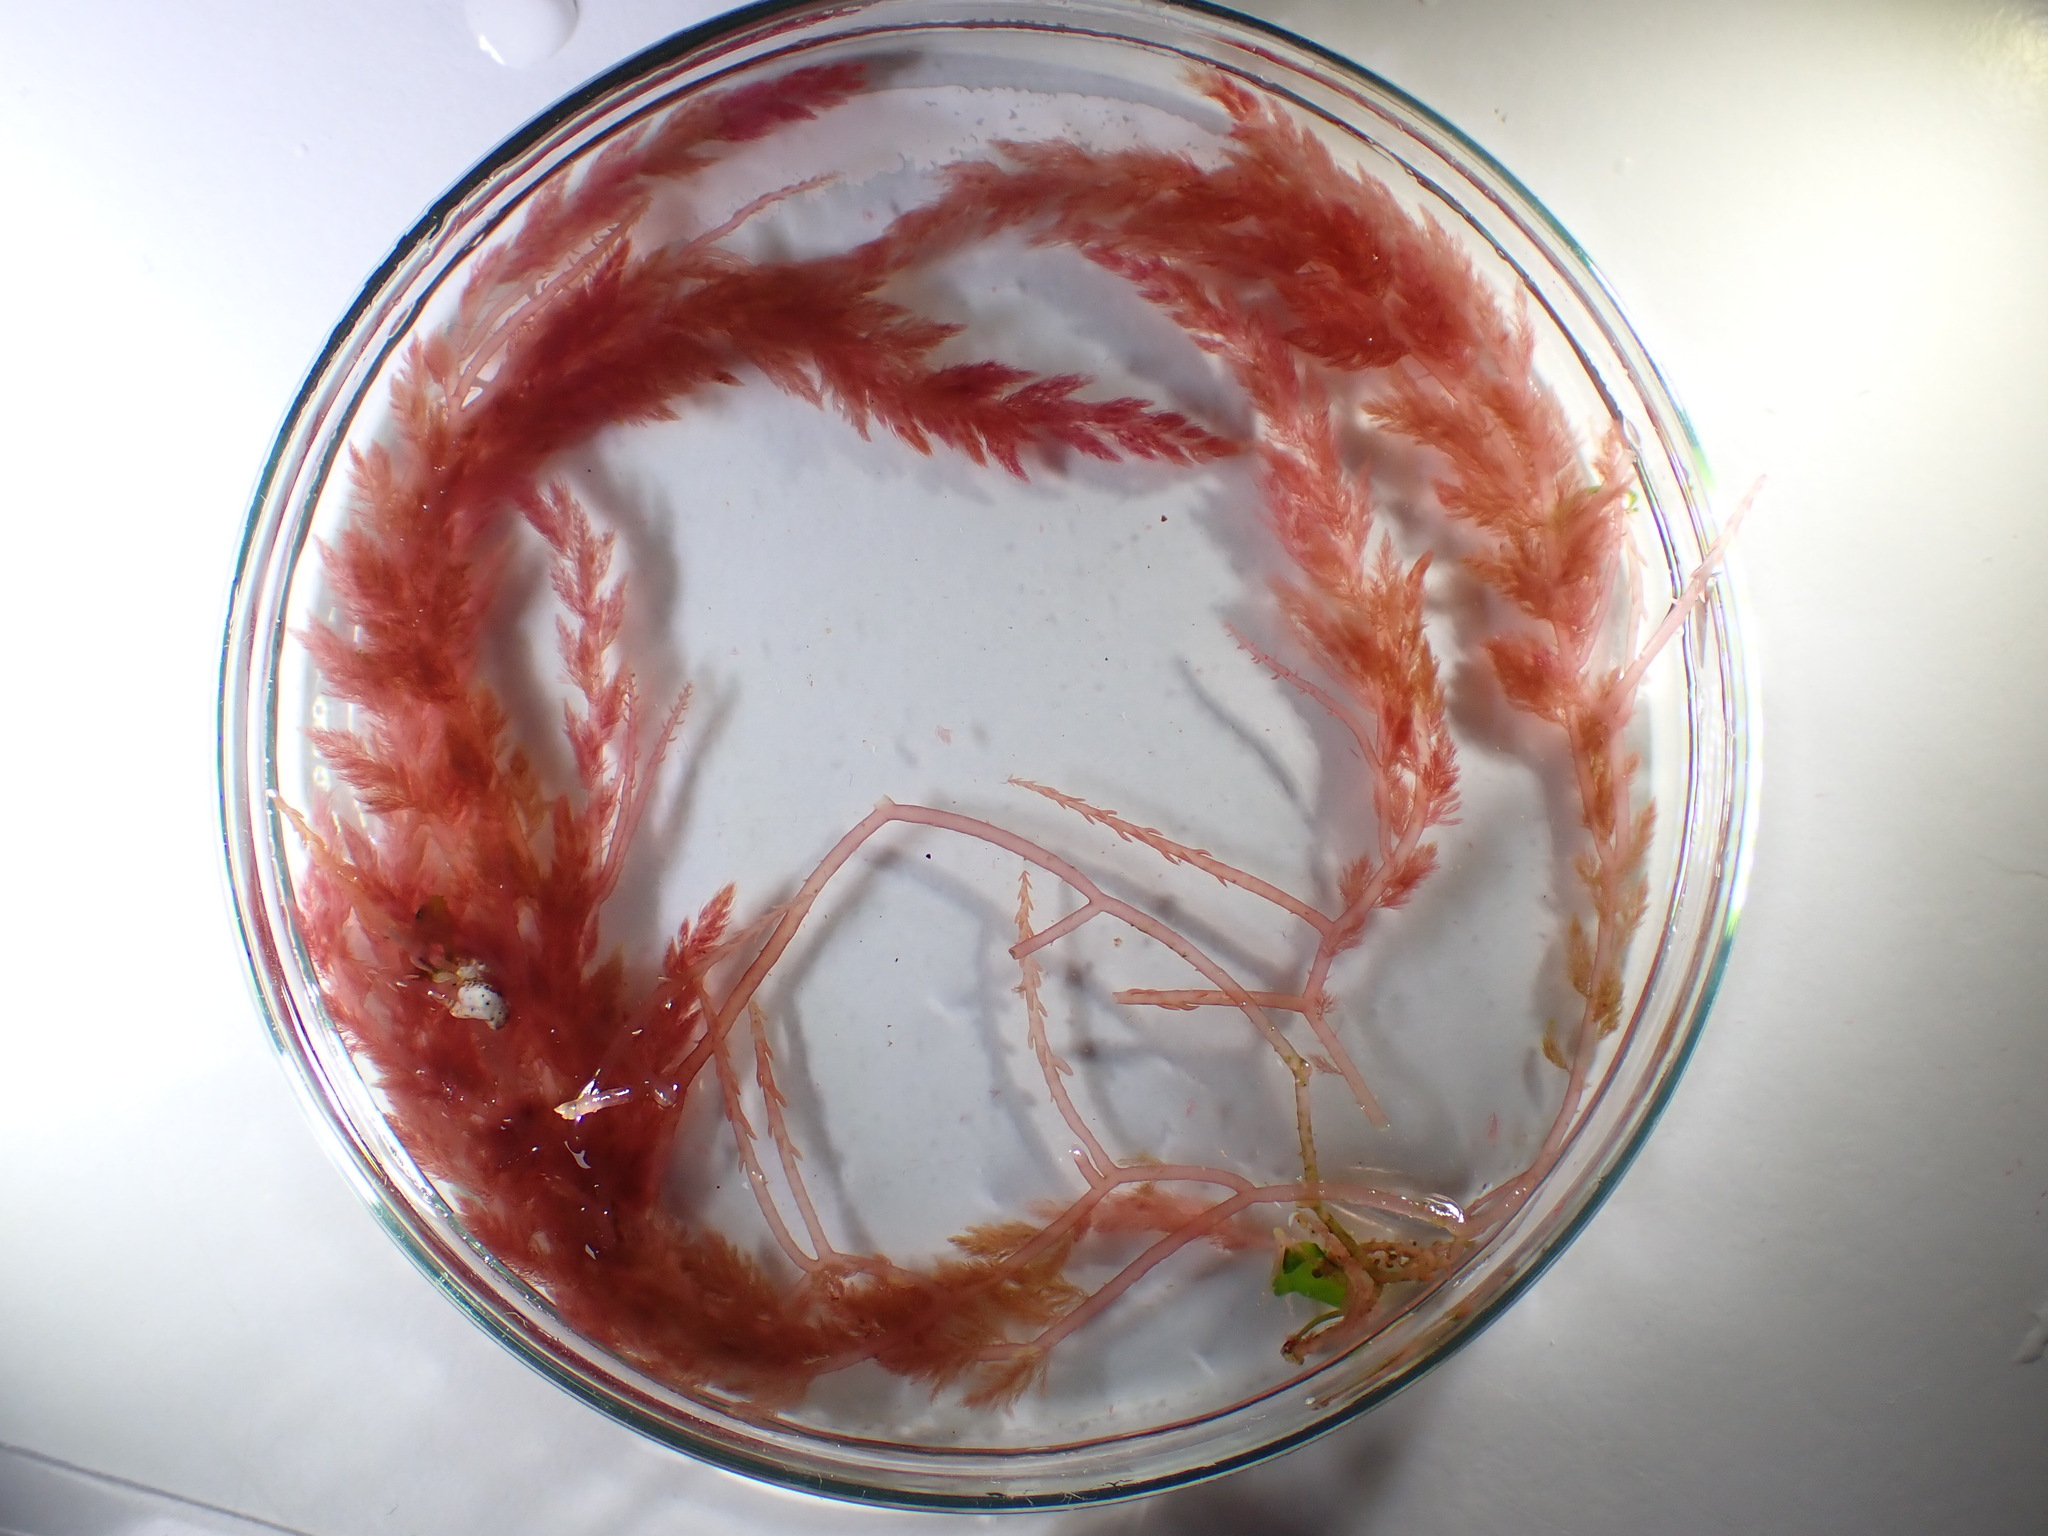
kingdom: Plantae
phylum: Rhodophyta
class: Florideophyceae
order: Bonnemaisoniales
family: Bonnemaisoniaceae
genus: Asparagopsis
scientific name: Asparagopsis armata
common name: Harpoon weed
